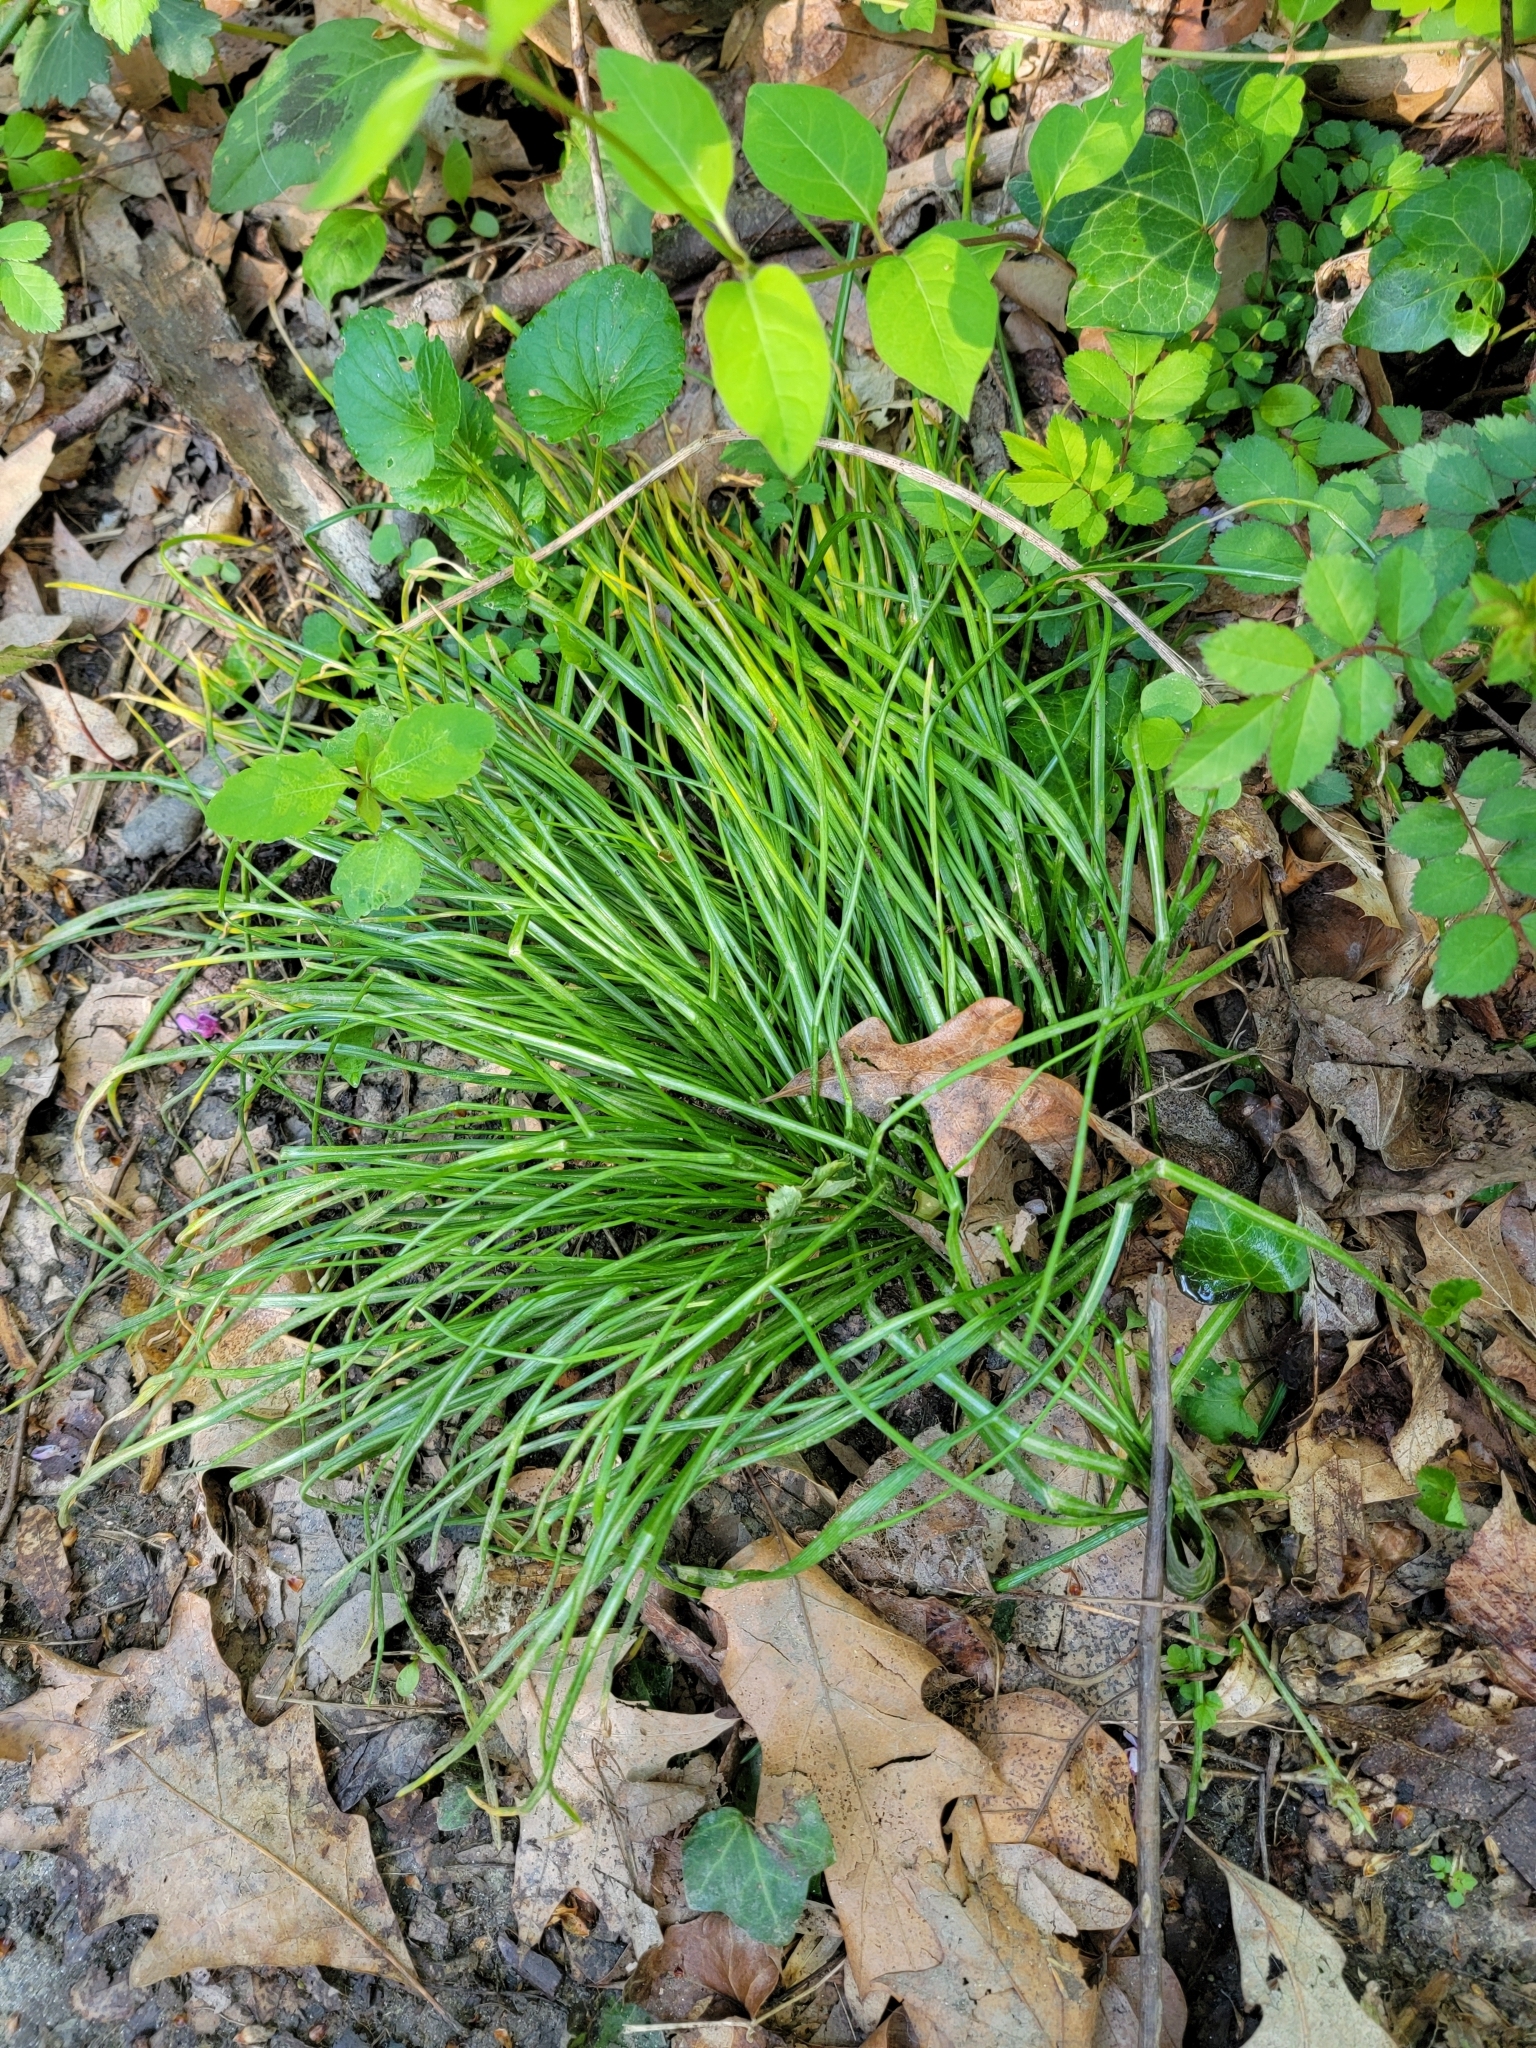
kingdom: Plantae
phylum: Tracheophyta
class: Liliopsida
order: Asparagales
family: Asparagaceae
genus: Ornithogalum
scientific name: Ornithogalum umbellatum
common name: Garden star-of-bethlehem
